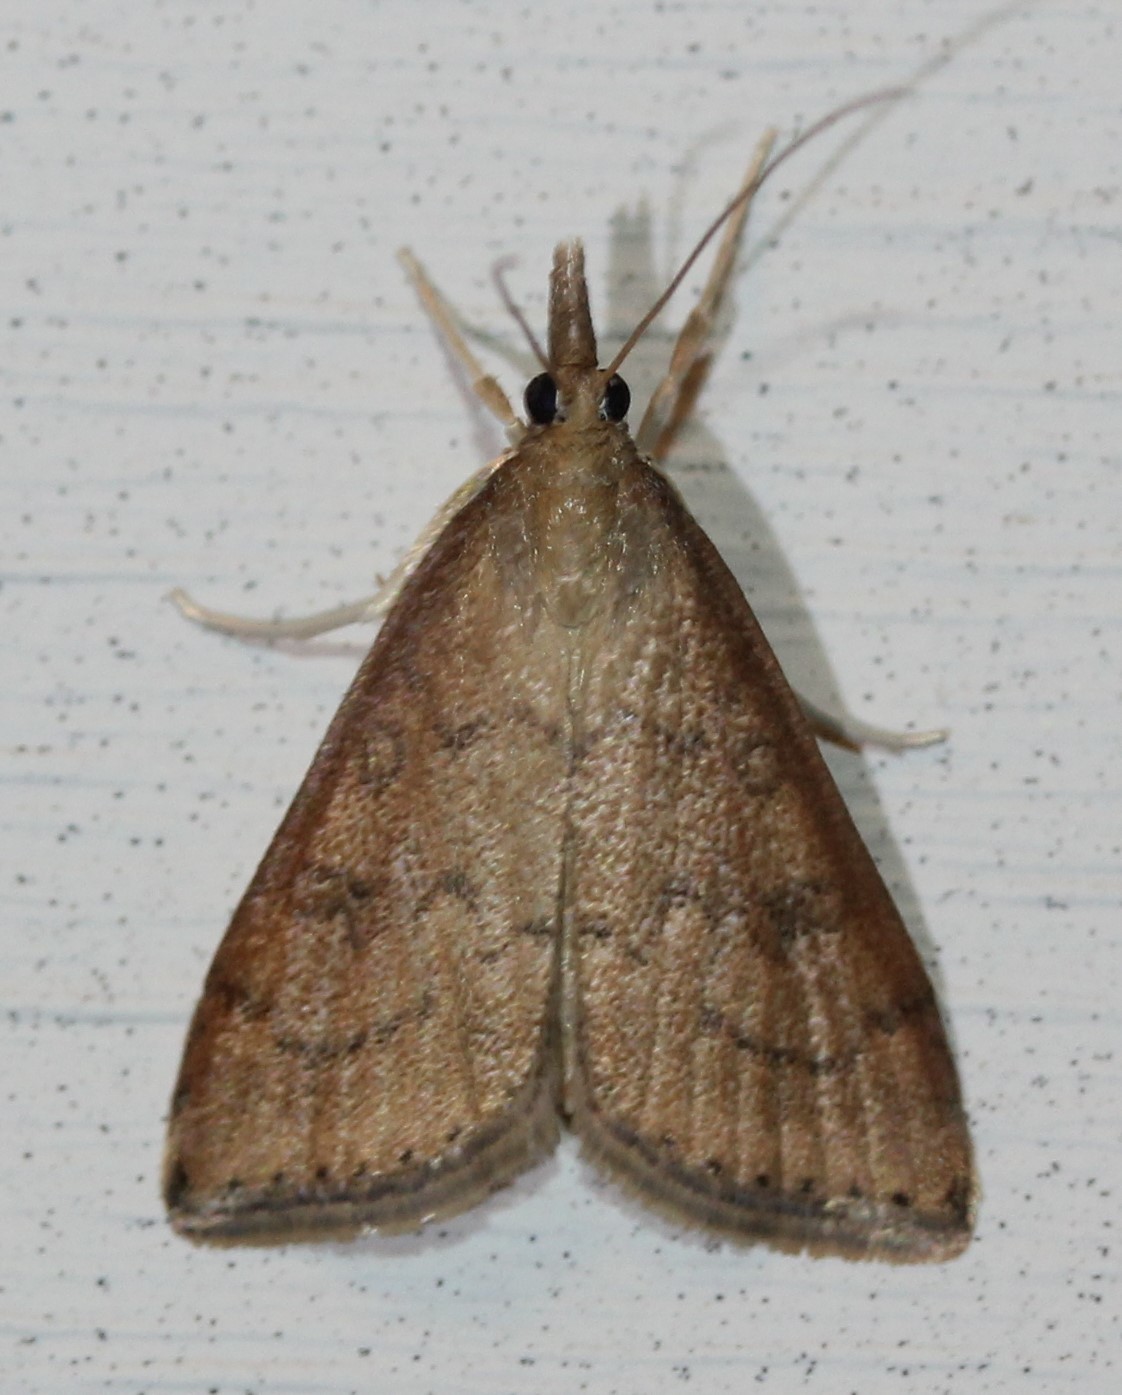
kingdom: Animalia
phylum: Arthropoda
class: Insecta
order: Lepidoptera
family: Crambidae
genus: Udea
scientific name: Udea rubigalis
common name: Celery leaftier moth
